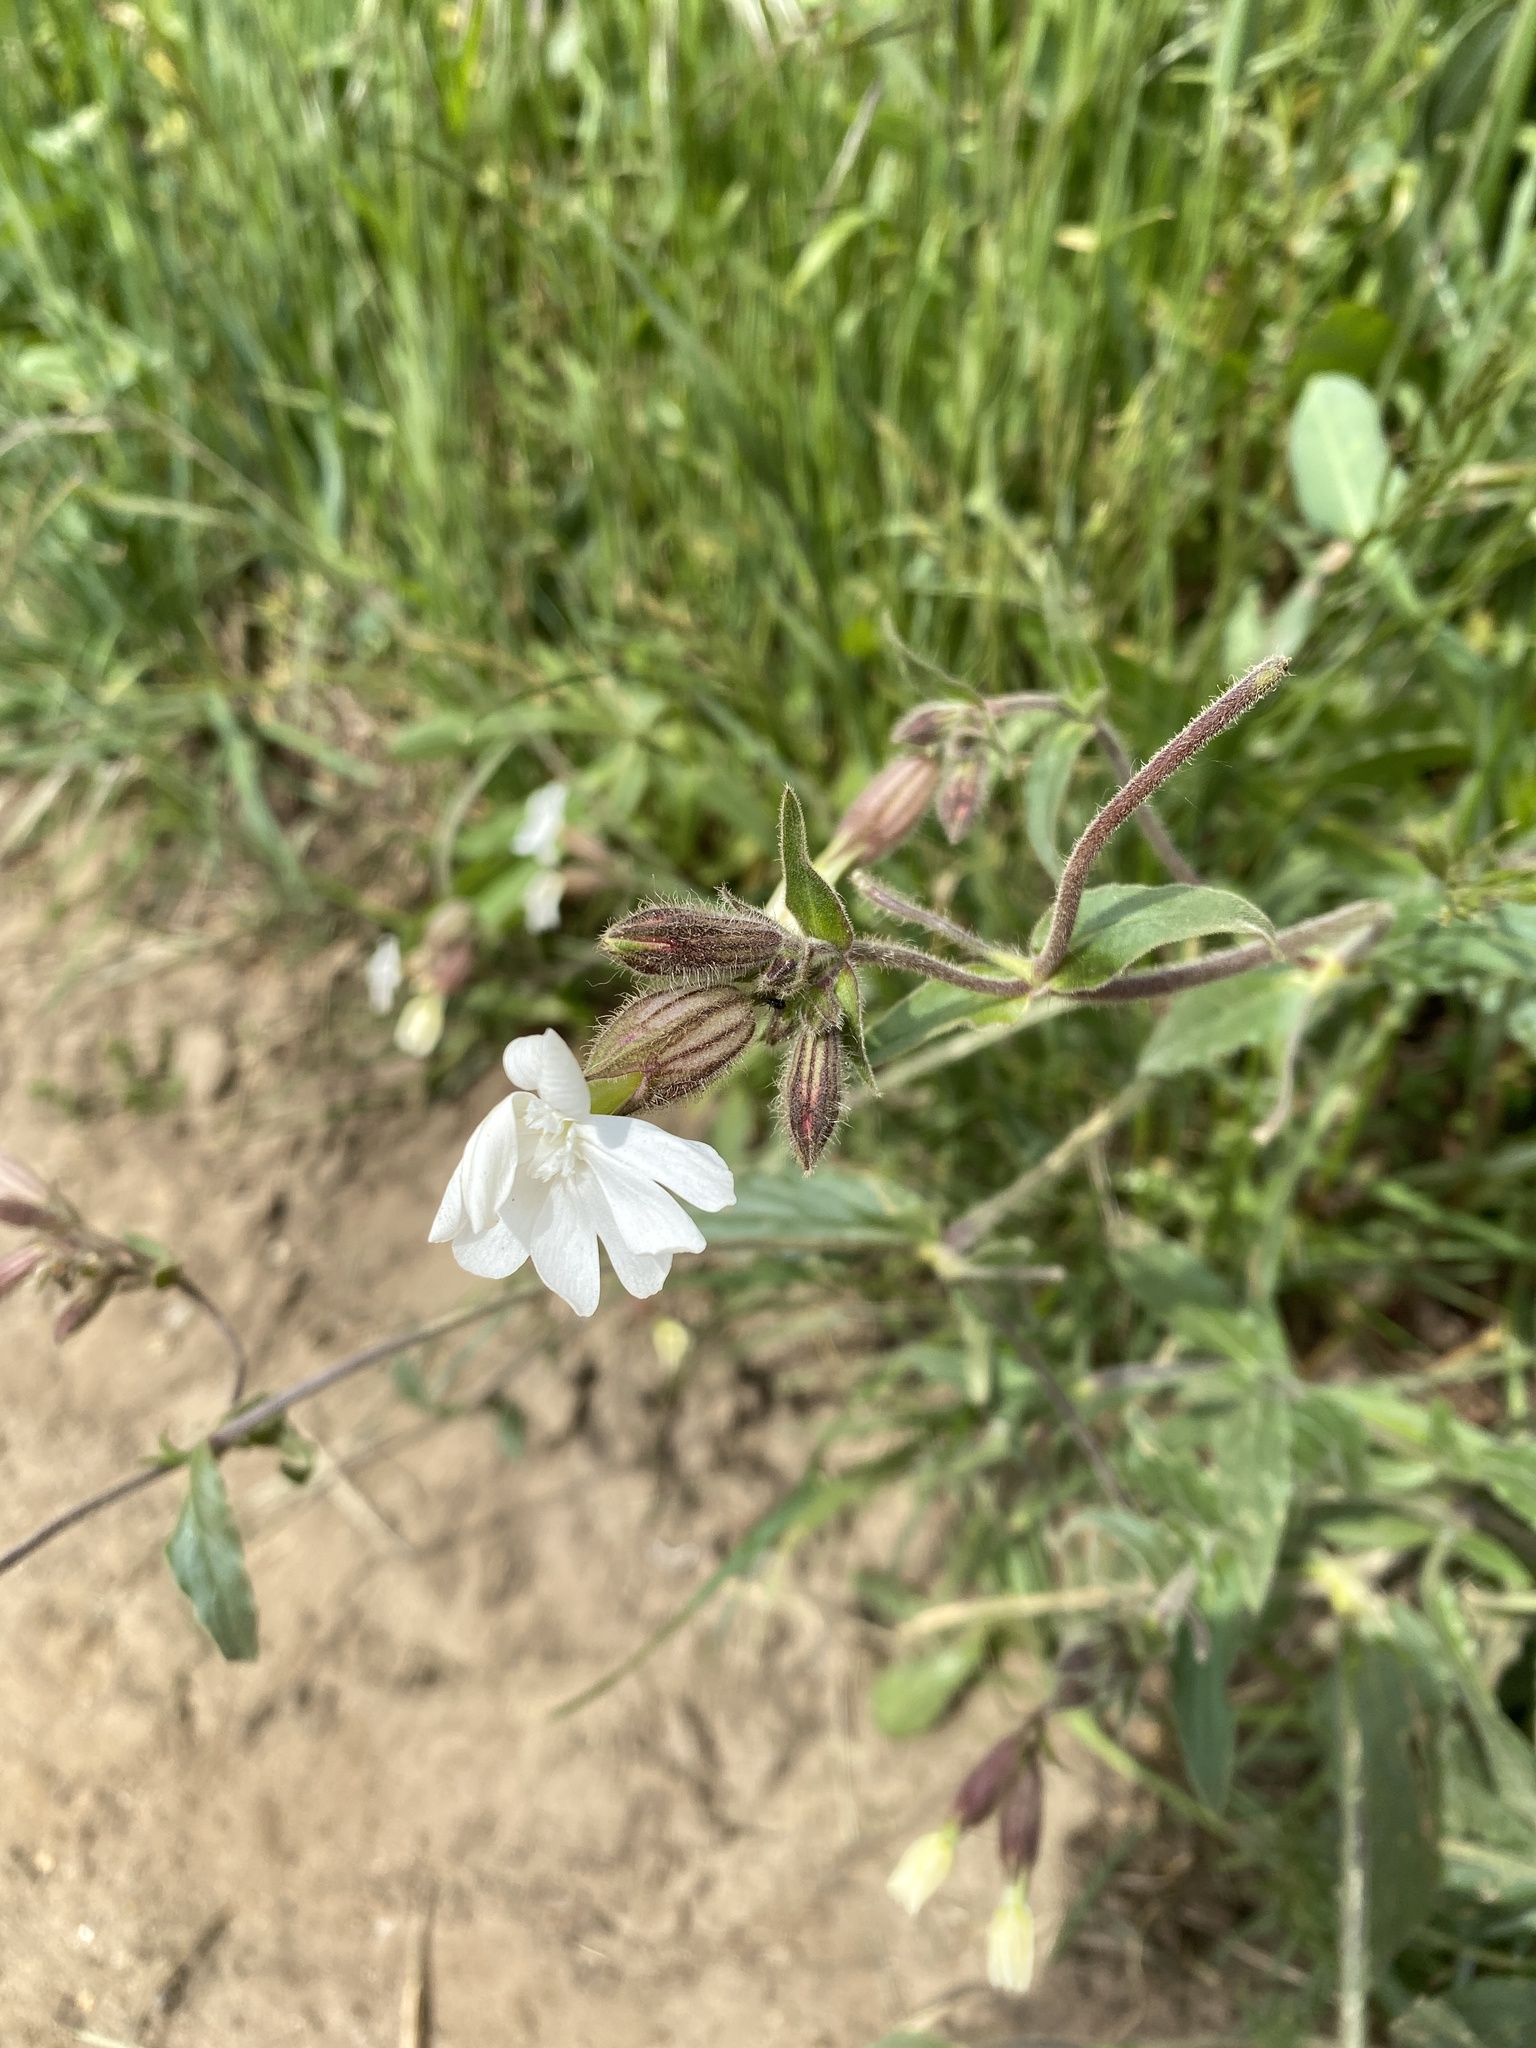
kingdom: Plantae
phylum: Tracheophyta
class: Magnoliopsida
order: Caryophyllales
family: Caryophyllaceae
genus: Silene
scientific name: Silene latifolia
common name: White campion
